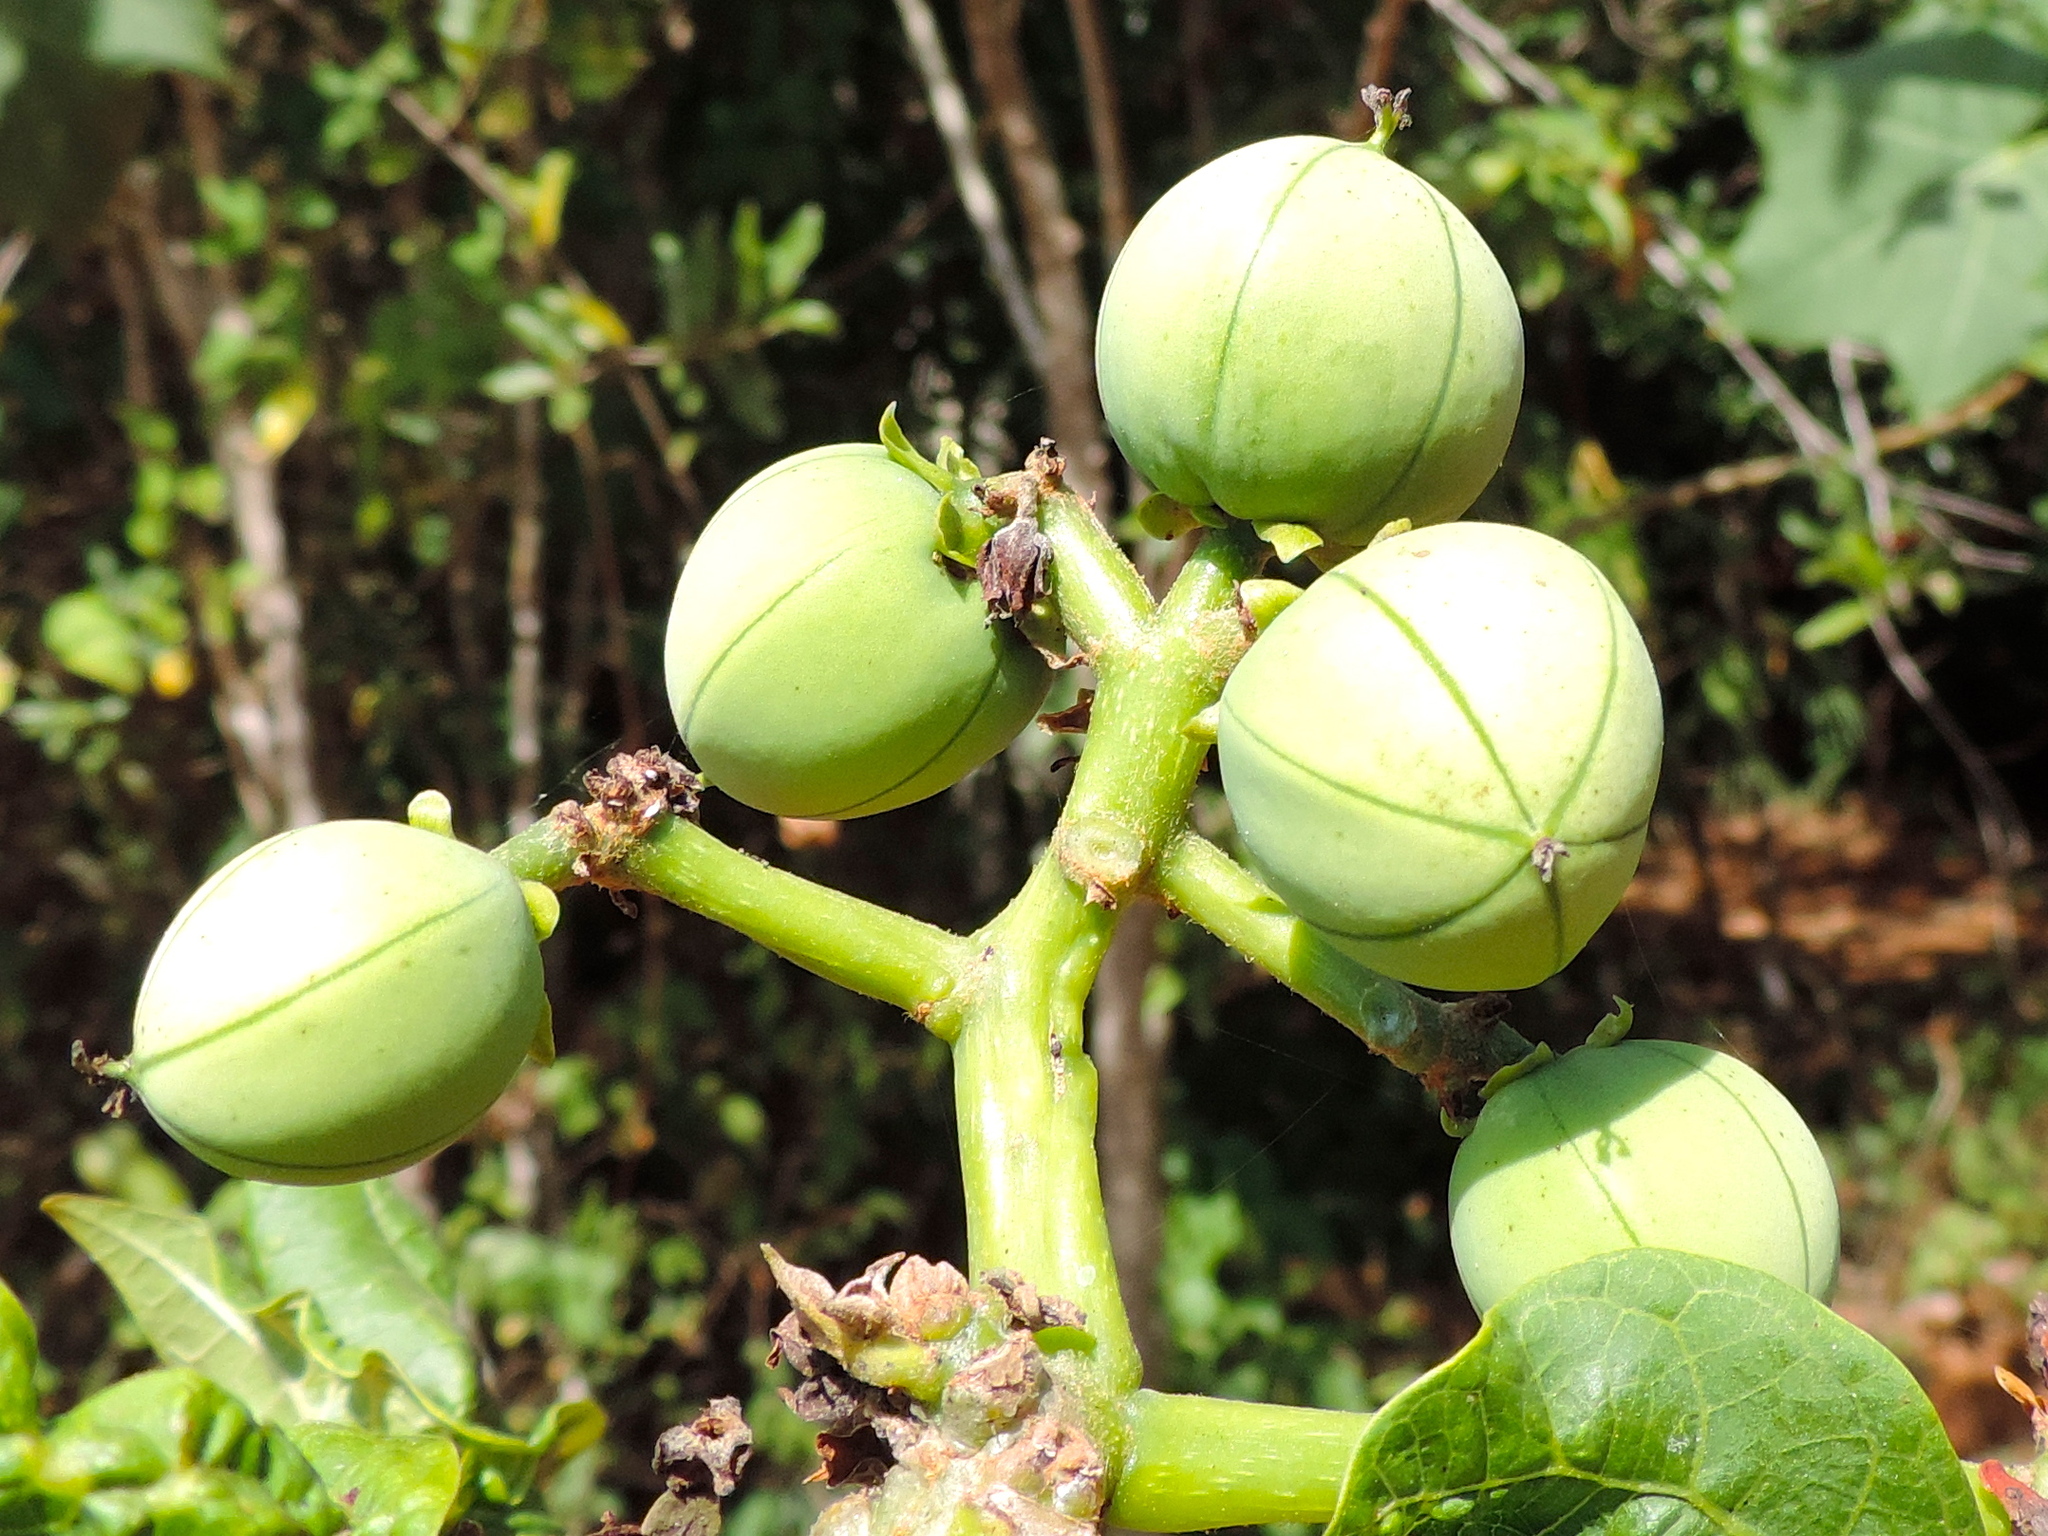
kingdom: Plantae
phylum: Tracheophyta
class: Magnoliopsida
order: Malpighiales
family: Euphorbiaceae
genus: Jatropha
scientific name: Jatropha curcas
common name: Barbados nut
